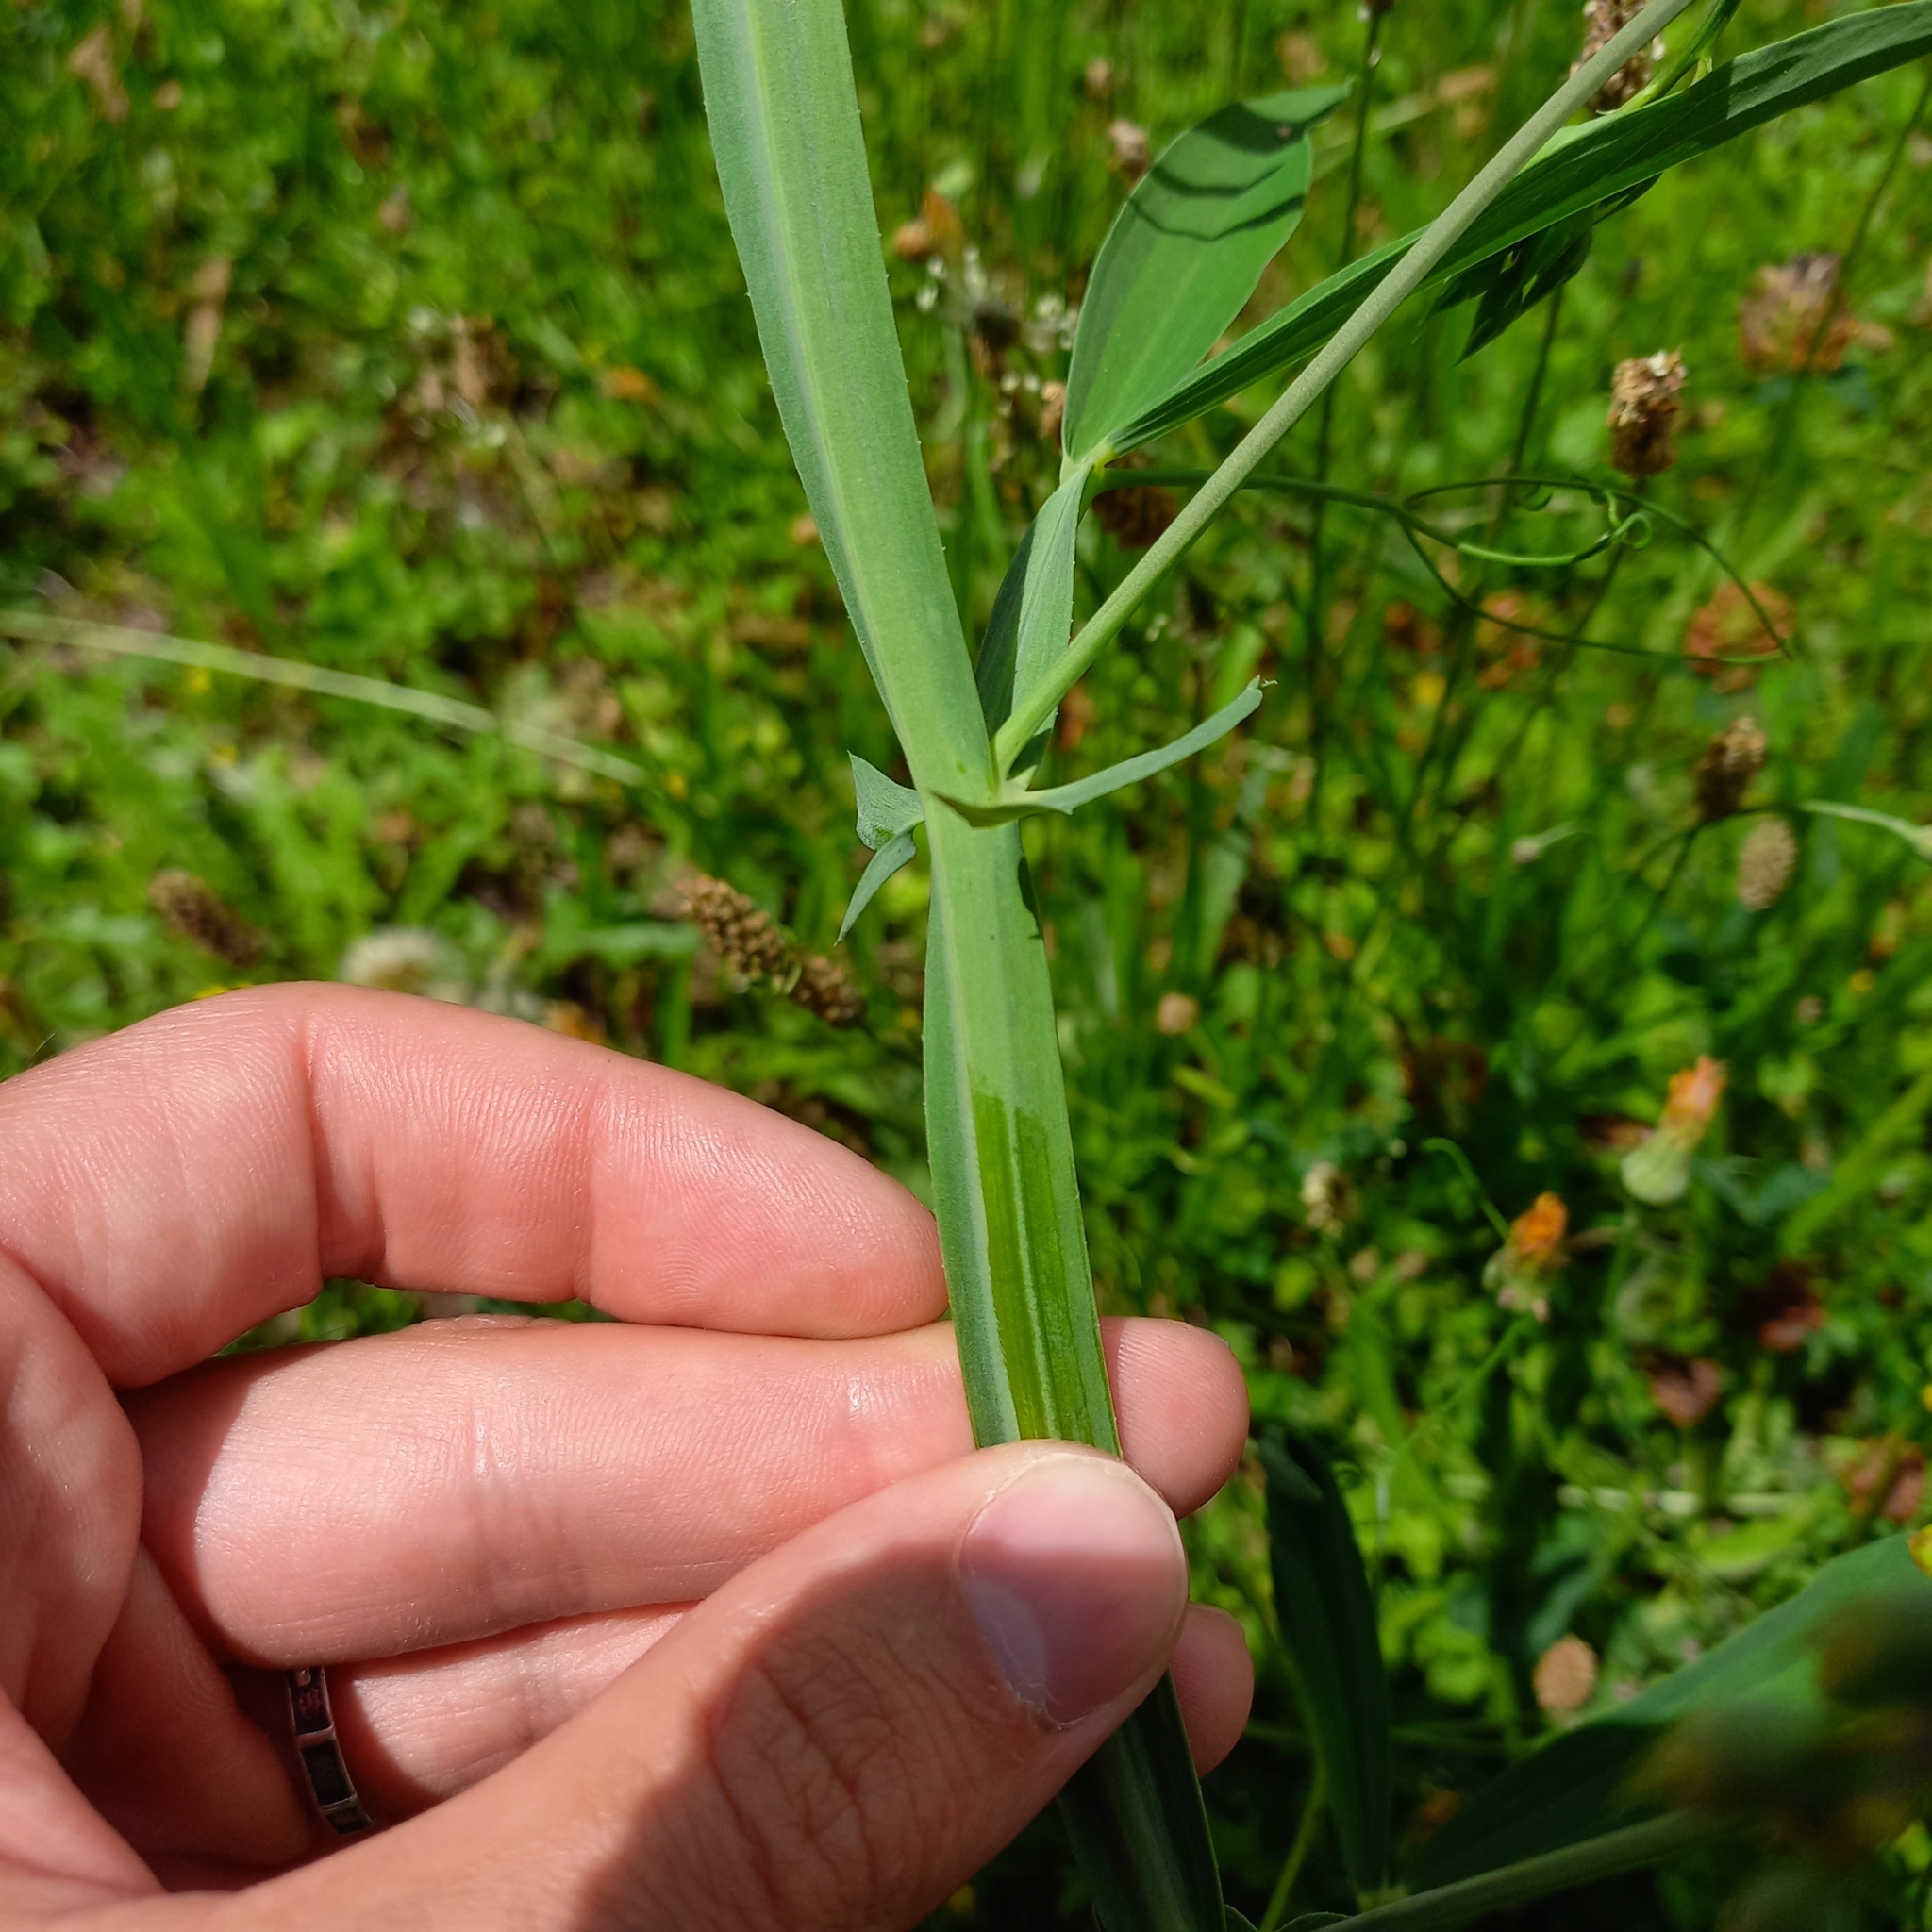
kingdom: Plantae
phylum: Tracheophyta
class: Magnoliopsida
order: Fabales
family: Fabaceae
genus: Lathyrus
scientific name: Lathyrus latifolius
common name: Perennial pea
